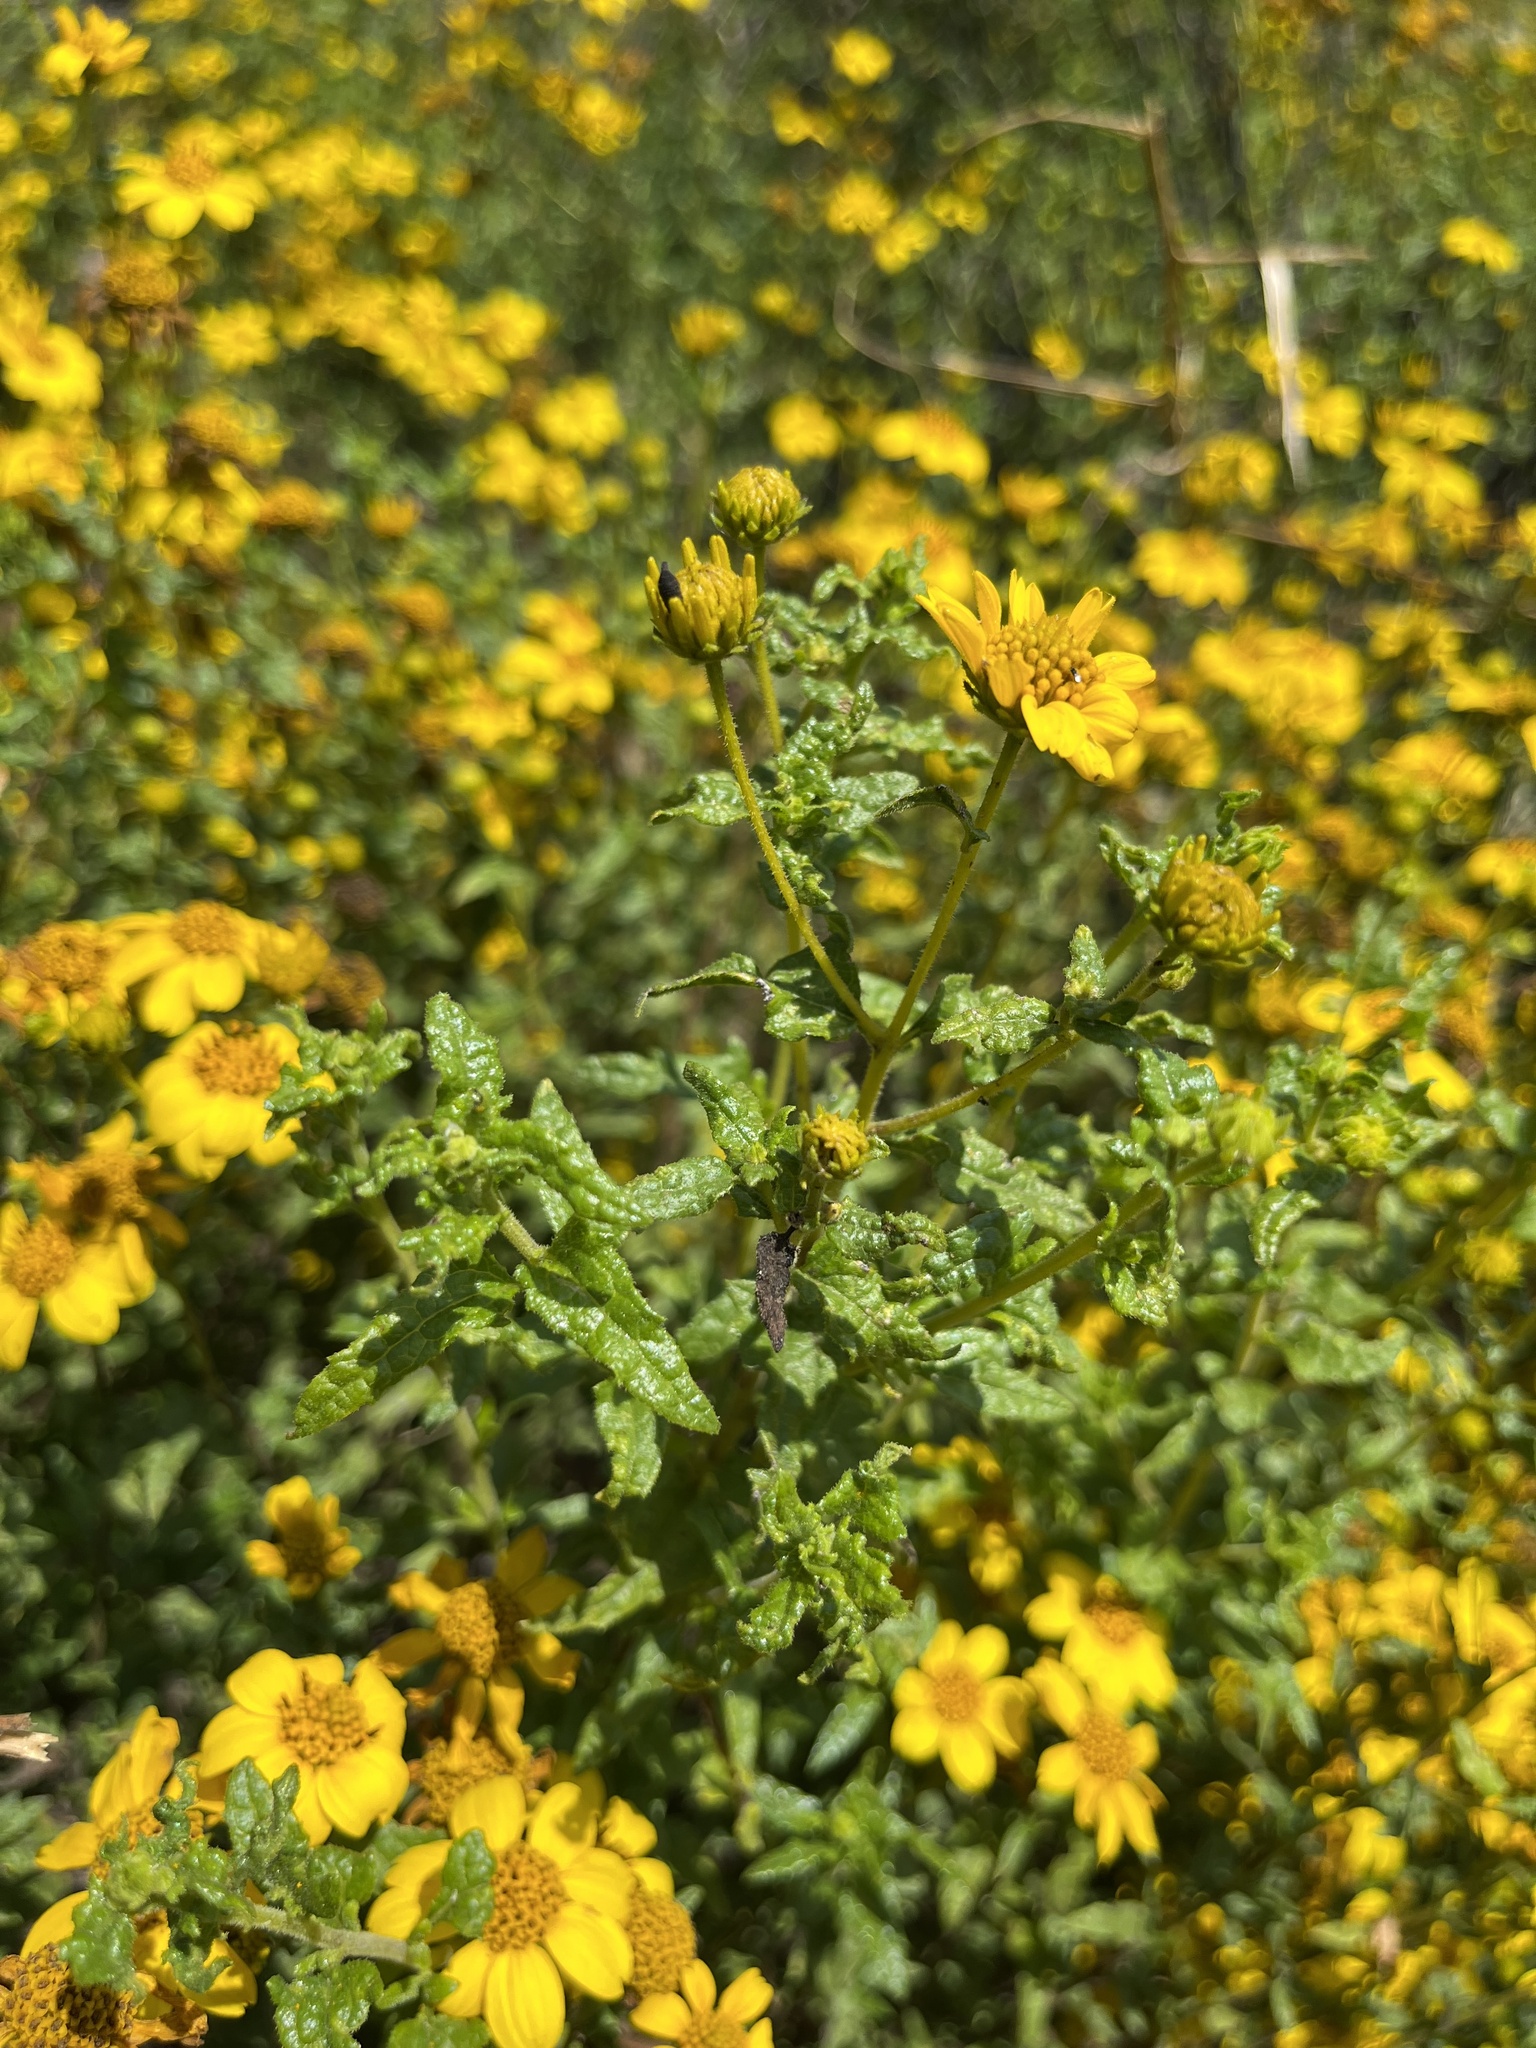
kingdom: Plantae
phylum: Tracheophyta
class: Magnoliopsida
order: Asterales
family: Asteraceae
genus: Bahiopsis
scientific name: Bahiopsis laciniata
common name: San diego county viguiera
